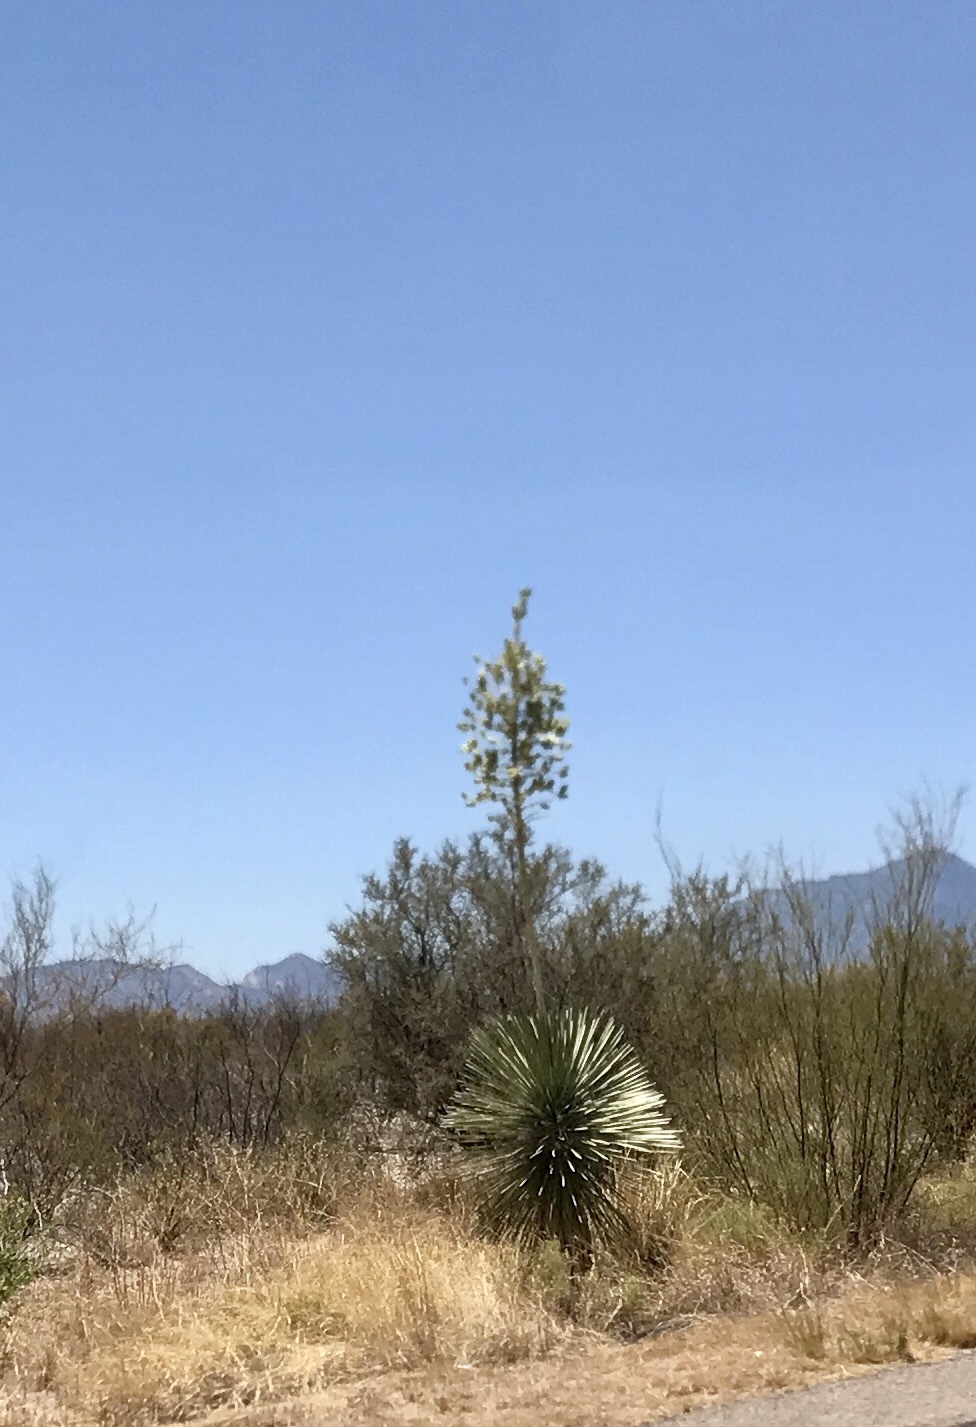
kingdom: Plantae
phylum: Tracheophyta
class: Liliopsida
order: Asparagales
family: Asparagaceae
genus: Yucca
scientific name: Yucca elata
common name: Palmella
